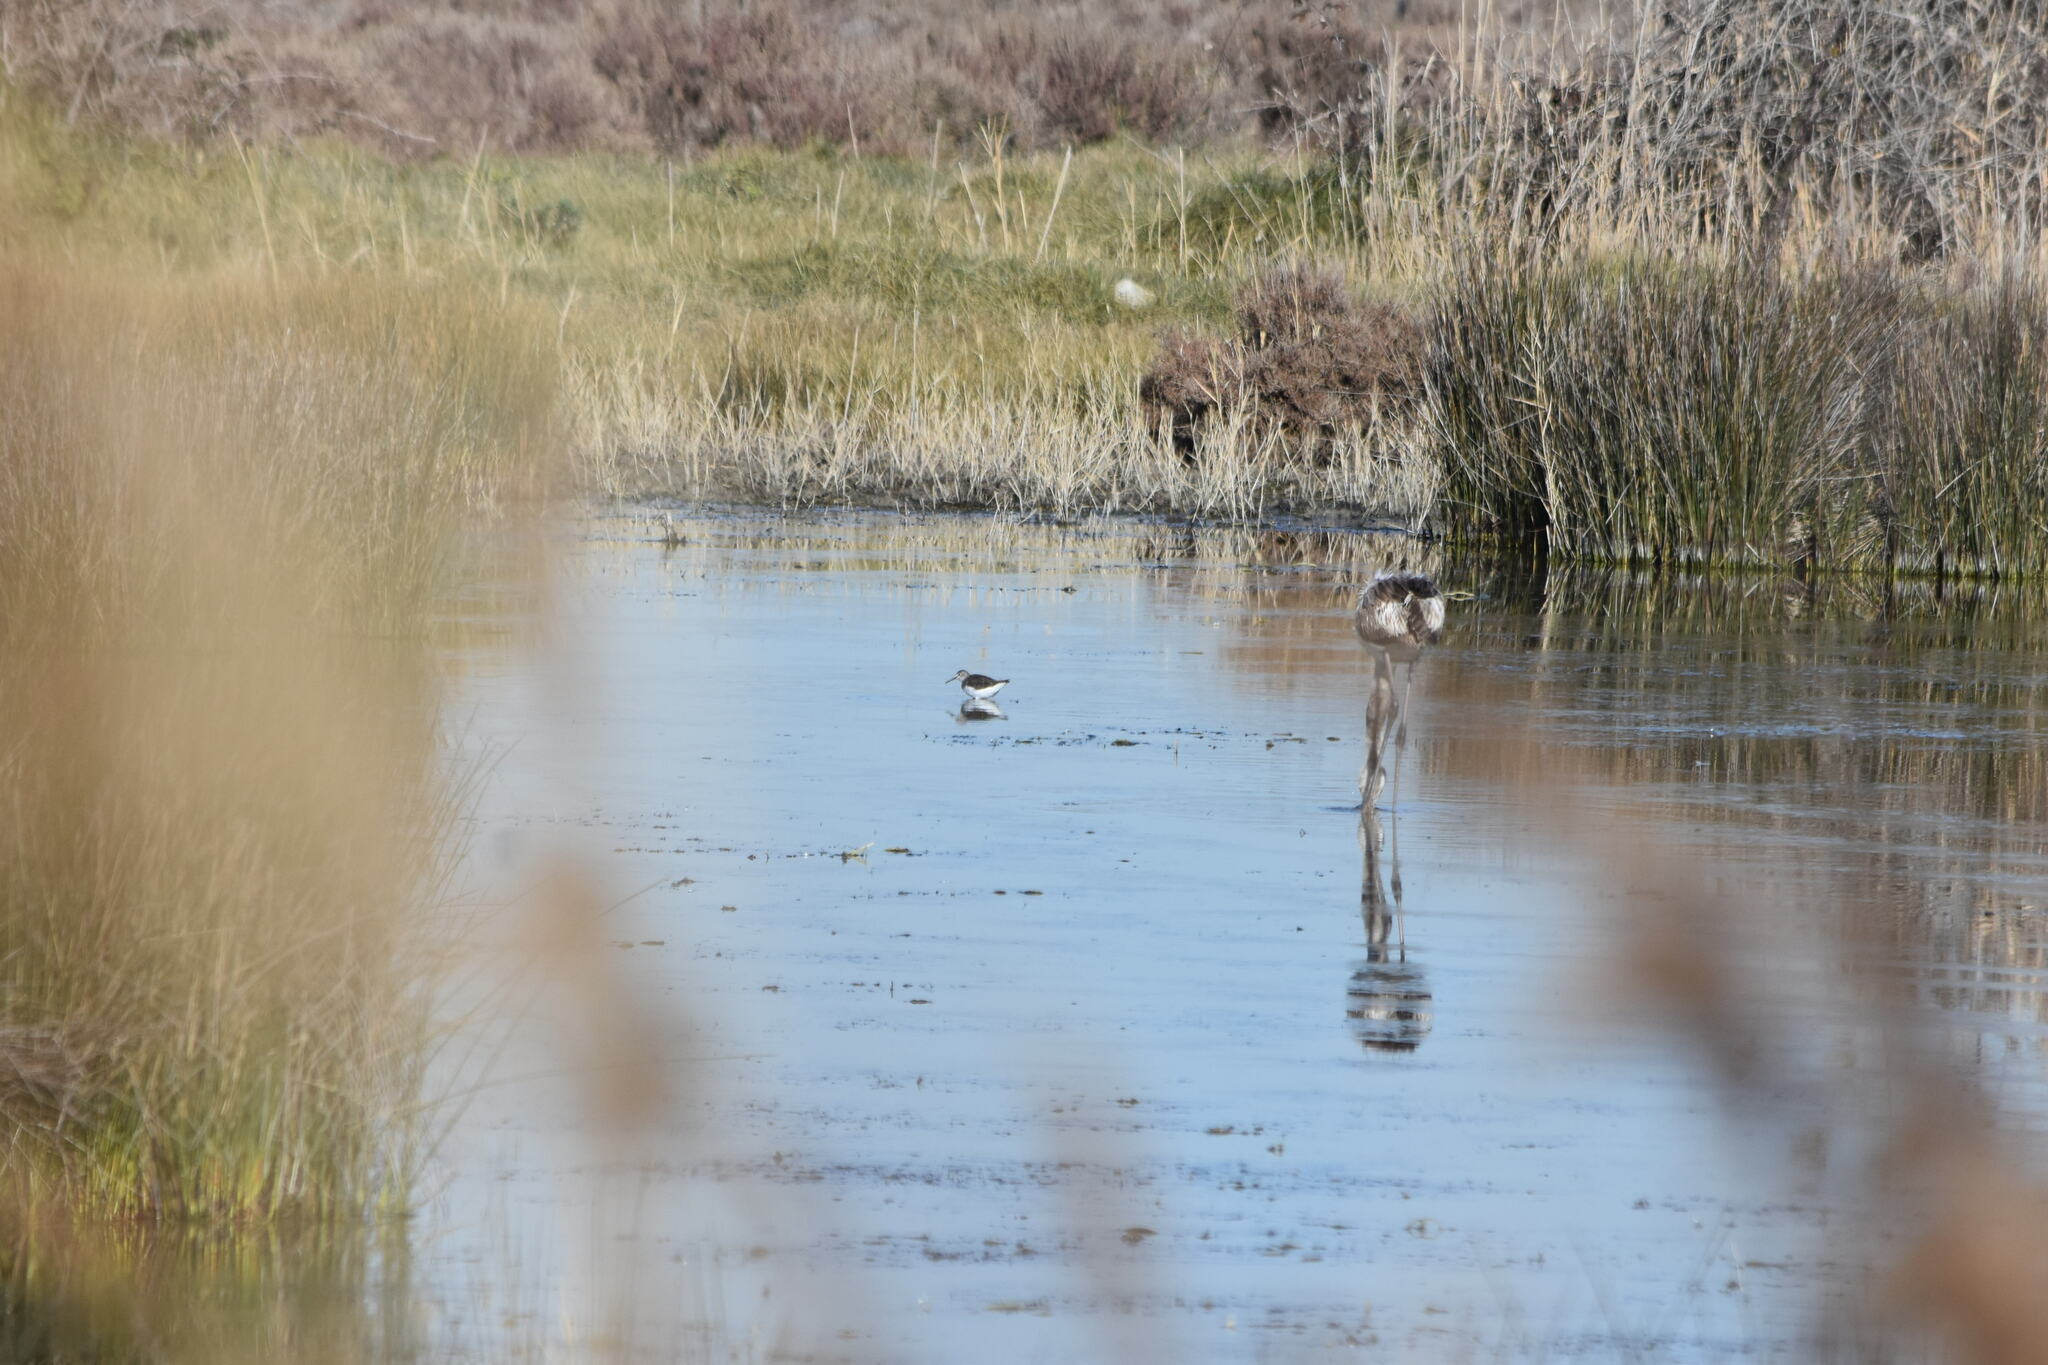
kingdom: Animalia
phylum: Chordata
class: Aves
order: Charadriiformes
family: Scolopacidae
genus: Tringa
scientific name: Tringa ochropus
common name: Green sandpiper
